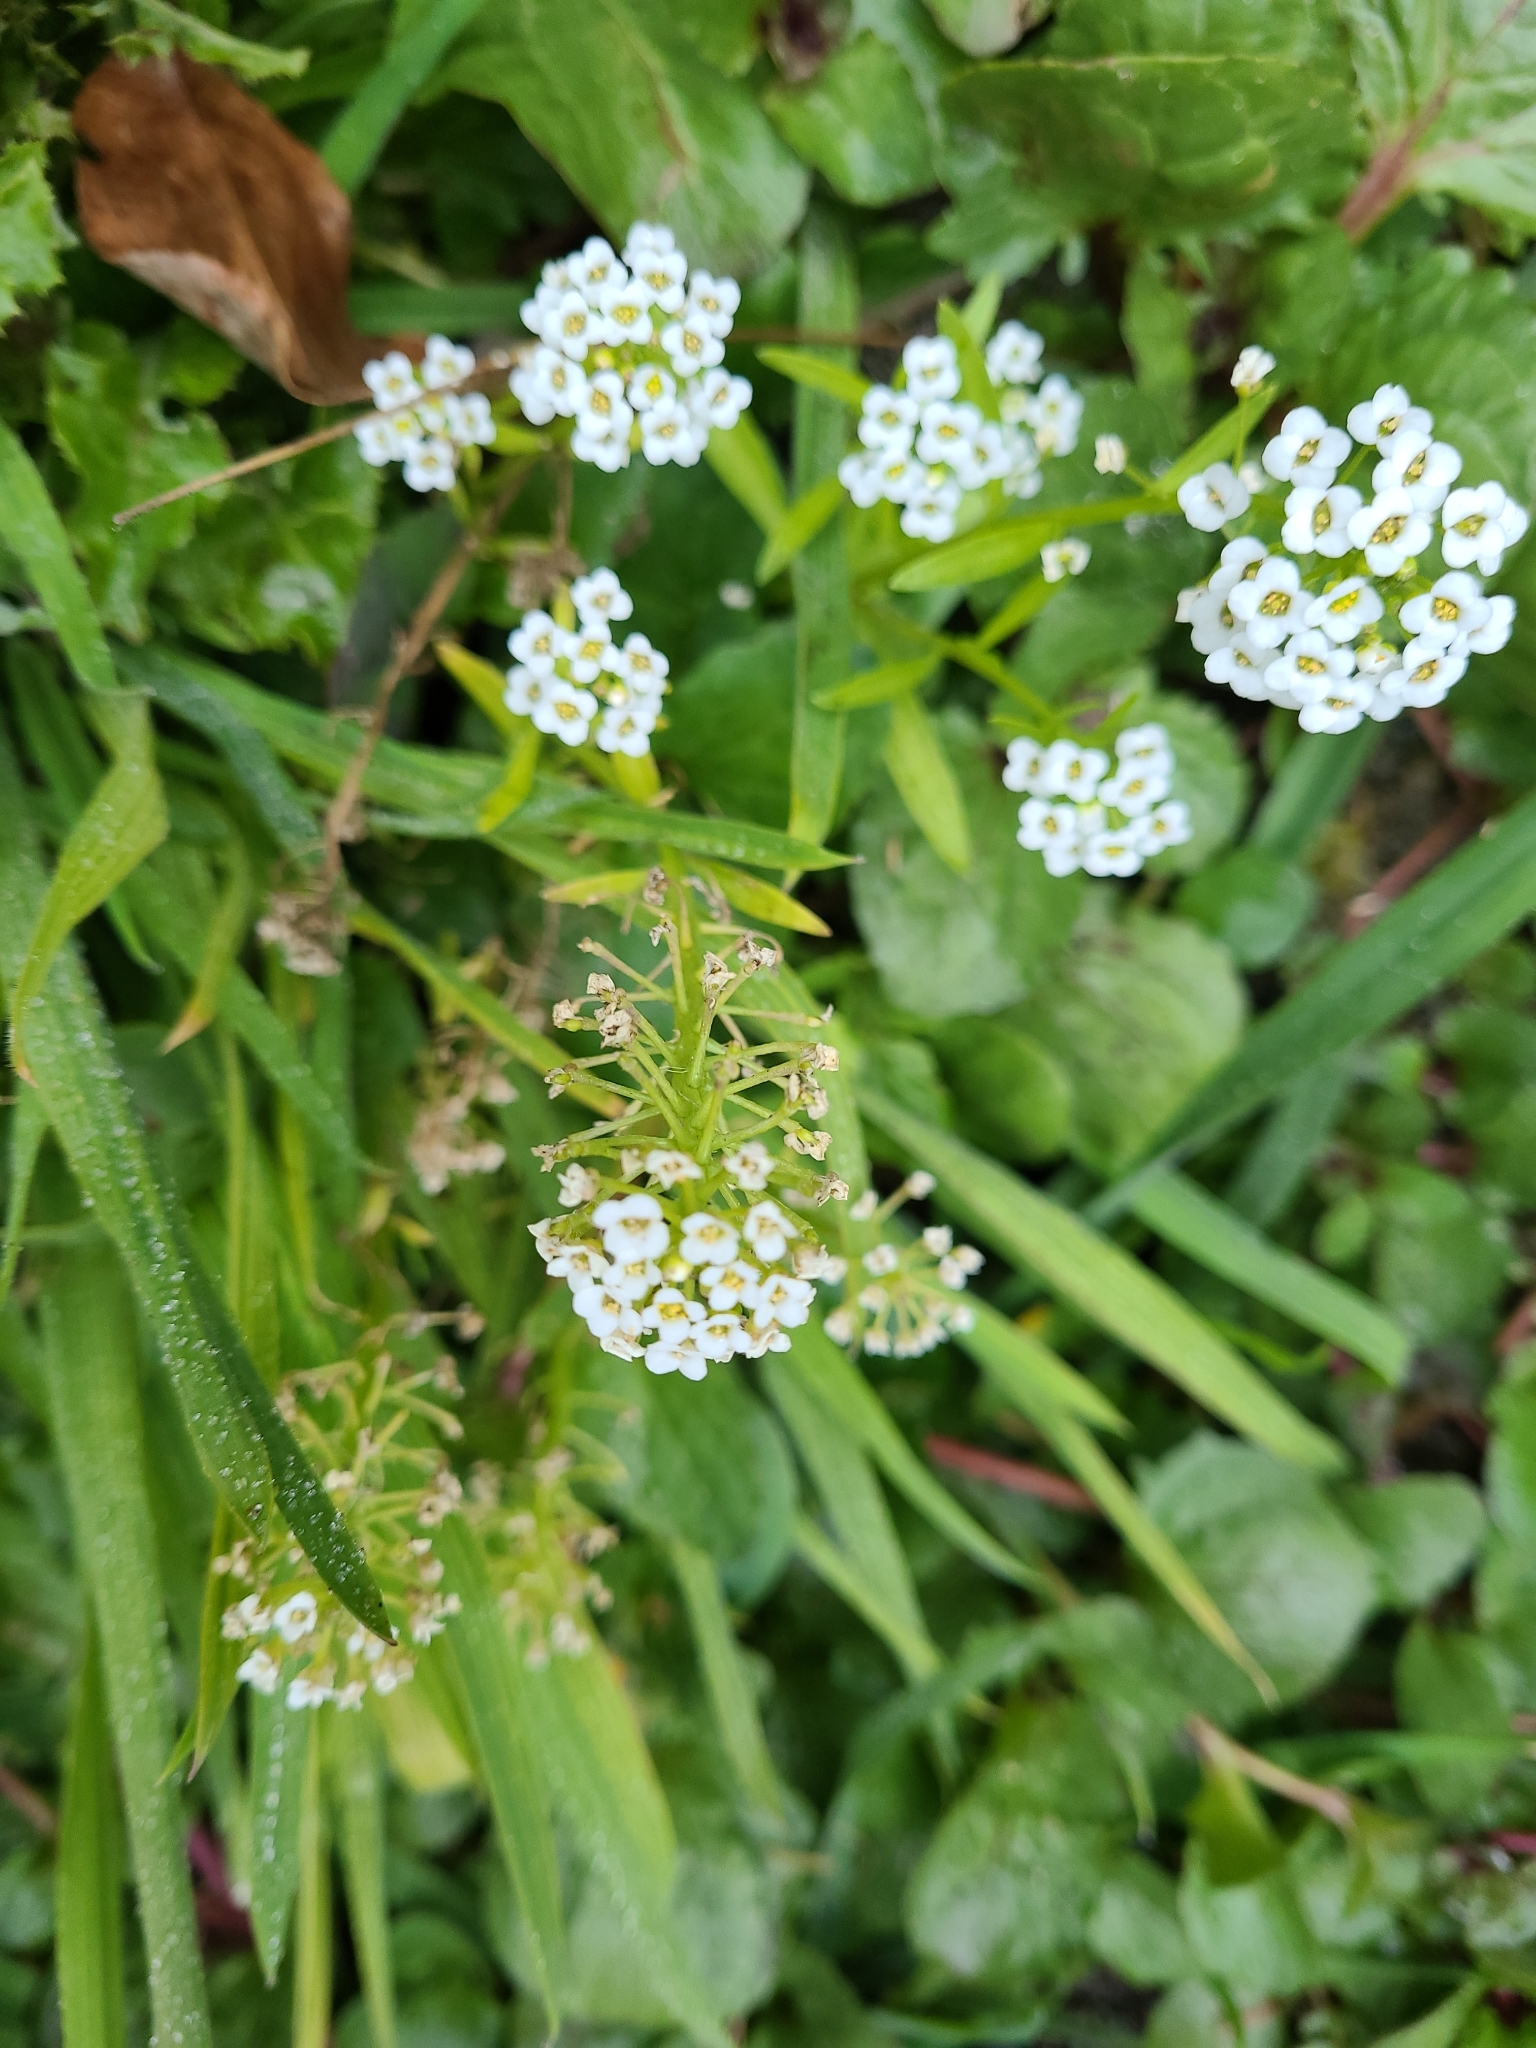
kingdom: Plantae
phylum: Tracheophyta
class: Magnoliopsida
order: Brassicales
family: Brassicaceae
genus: Lobularia
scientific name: Lobularia maritima
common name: Sweet alison
